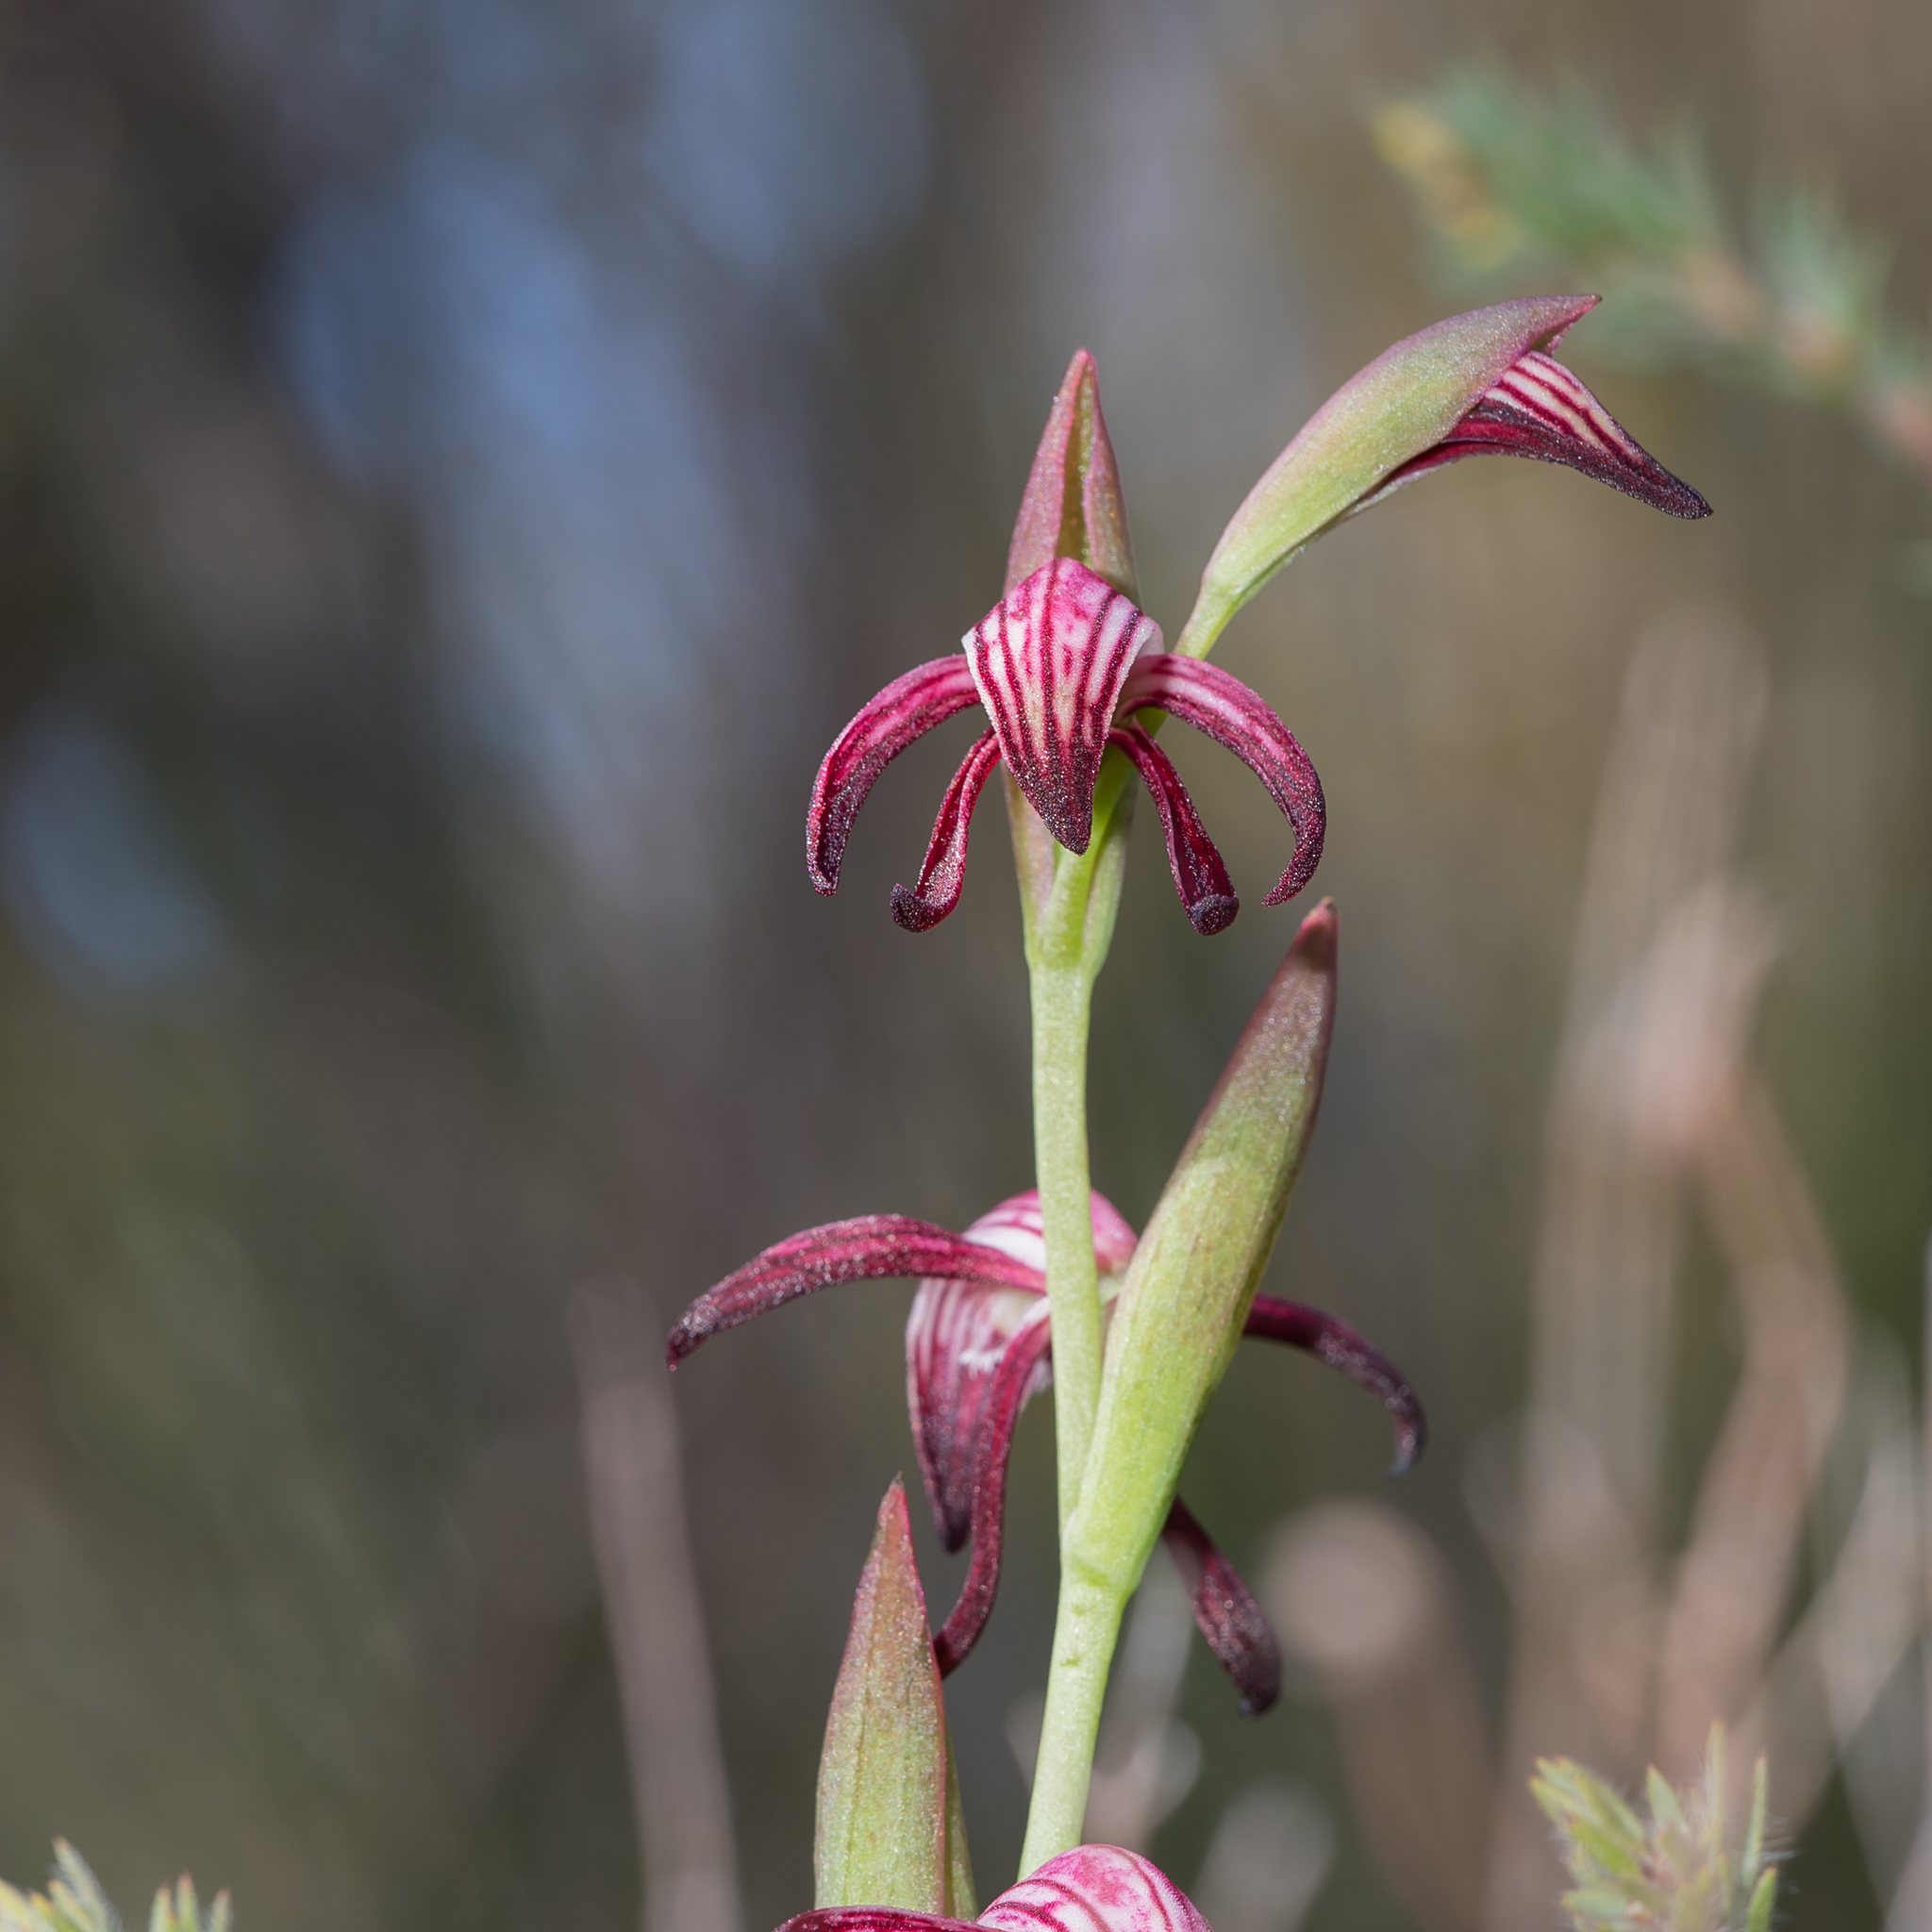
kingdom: Plantae
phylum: Tracheophyta
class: Liliopsida
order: Asparagales
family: Orchidaceae
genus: Pyrorchis
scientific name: Pyrorchis nigricans
